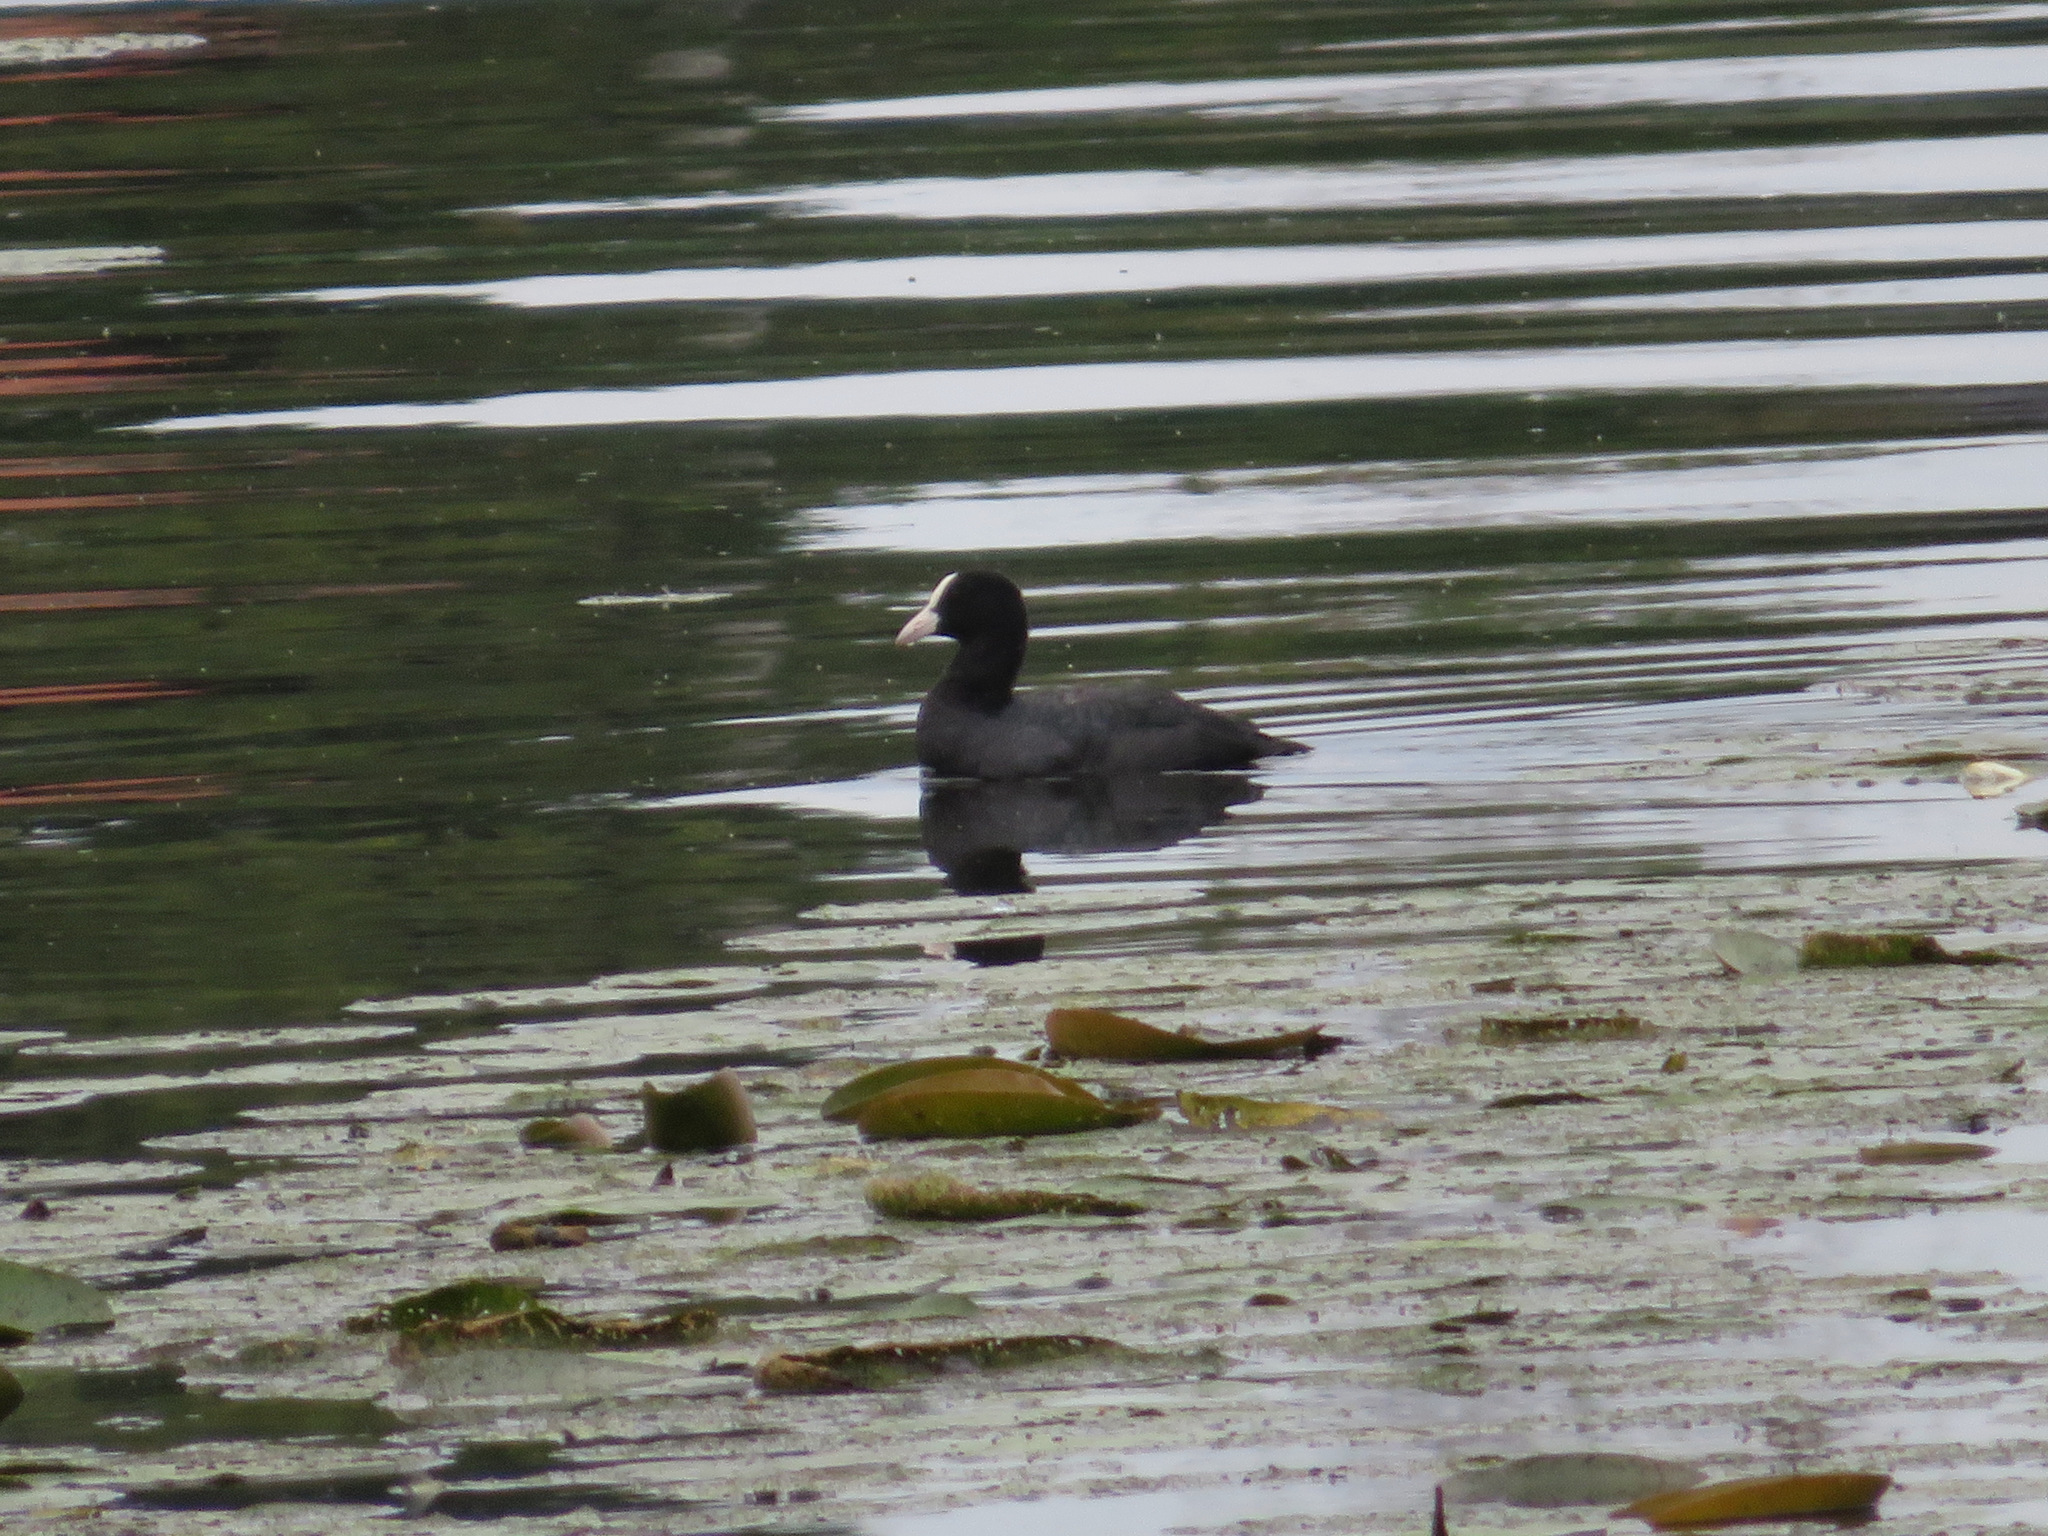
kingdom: Animalia
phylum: Chordata
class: Aves
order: Gruiformes
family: Rallidae
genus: Fulica
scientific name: Fulica atra
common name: Eurasian coot
